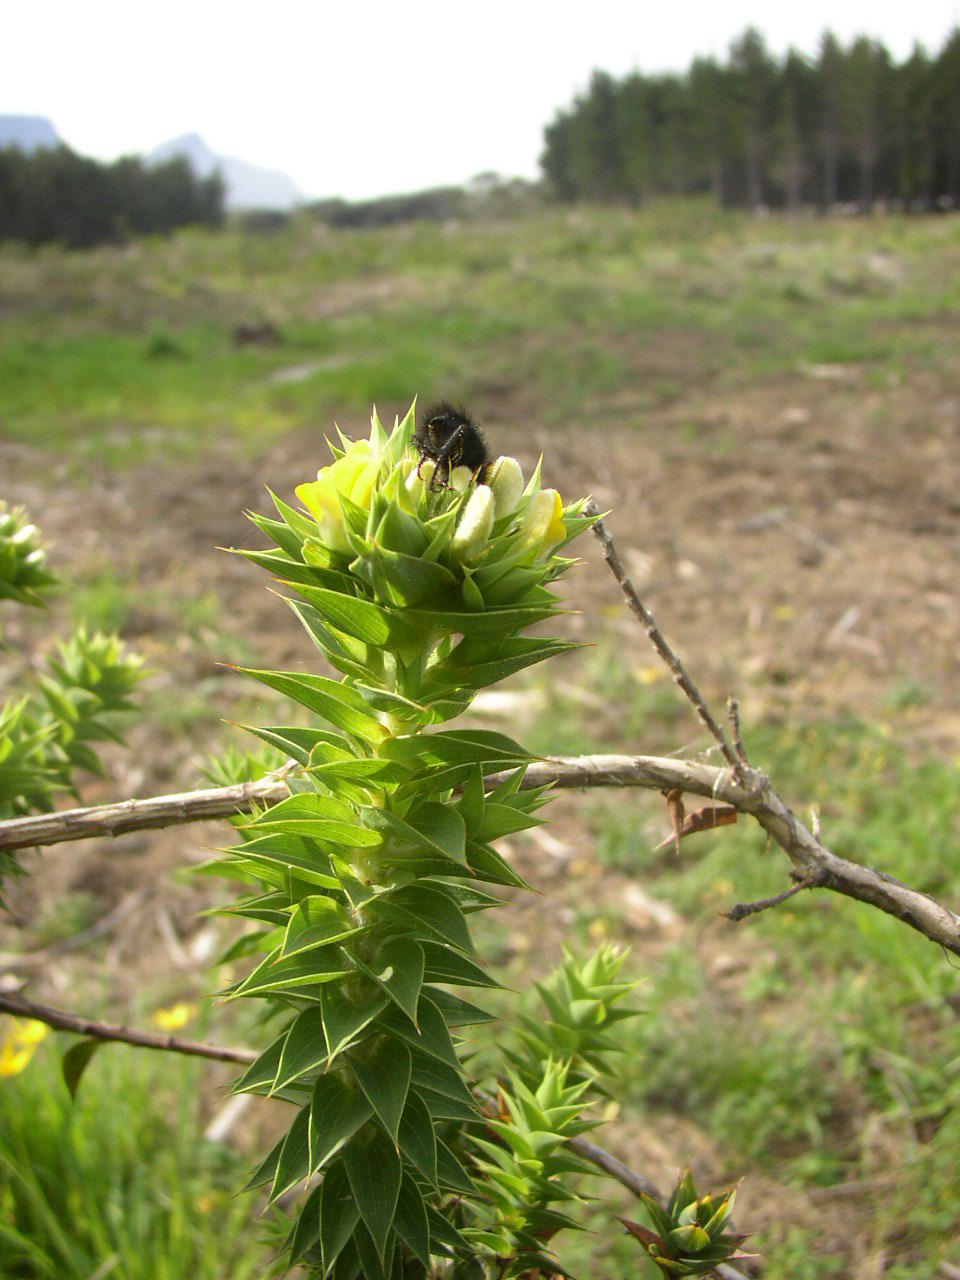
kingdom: Plantae
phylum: Tracheophyta
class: Magnoliopsida
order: Fabales
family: Fabaceae
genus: Aspalathus
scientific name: Aspalathus cordata
